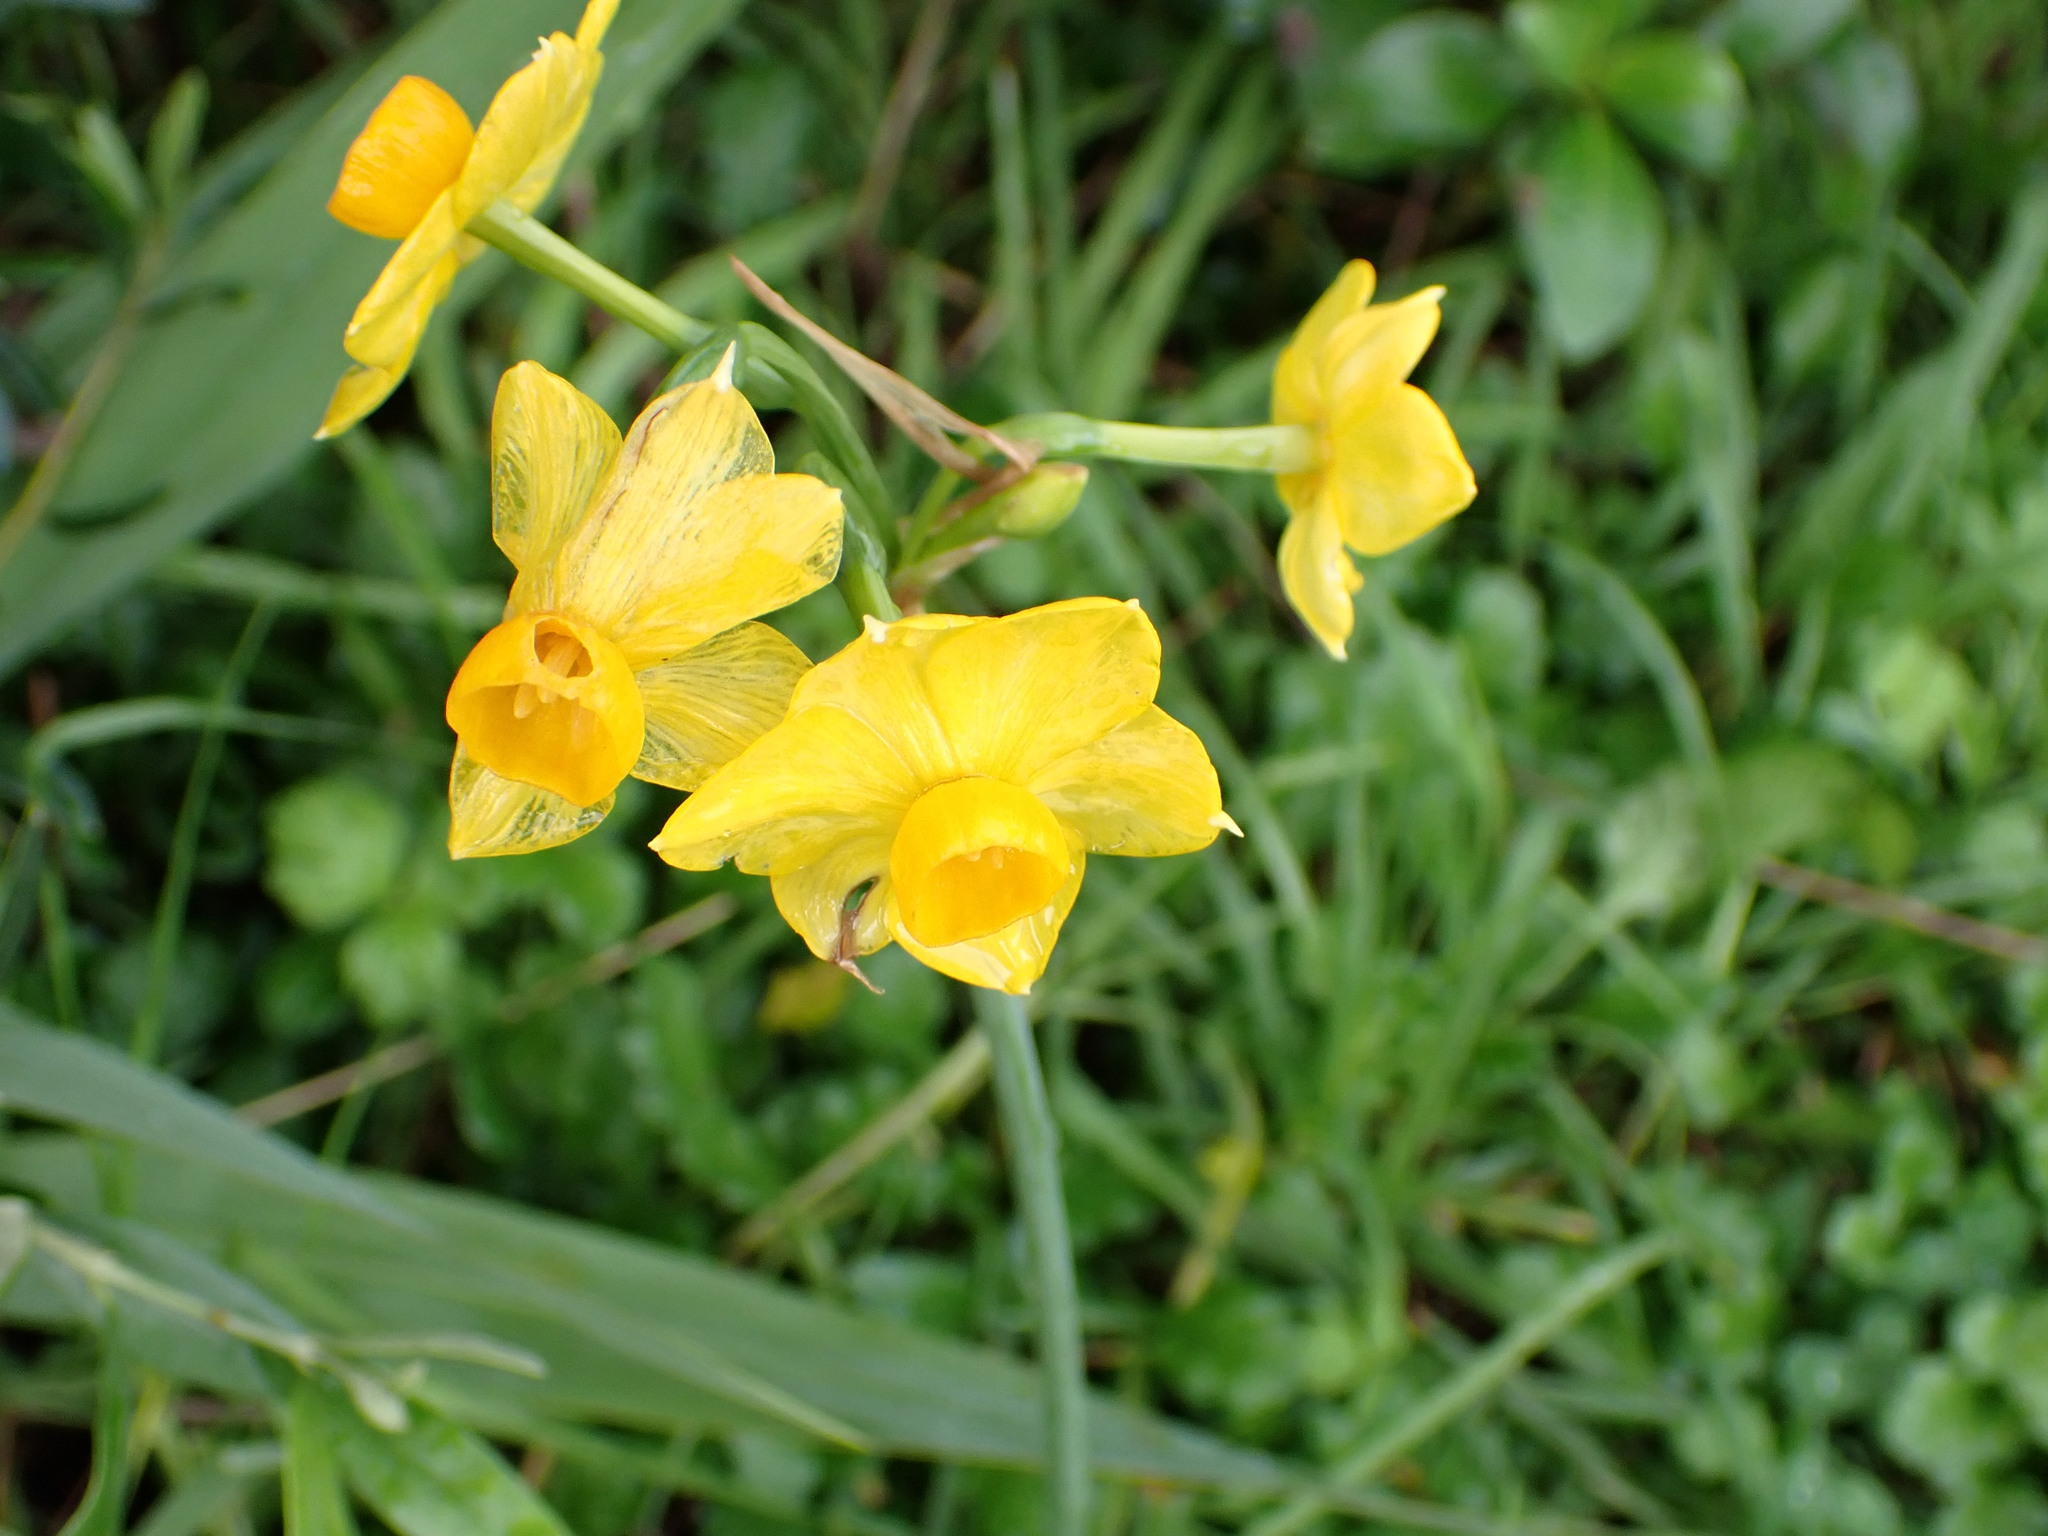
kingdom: Plantae
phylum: Tracheophyta
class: Liliopsida
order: Asparagales
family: Amaryllidaceae
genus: Narcissus
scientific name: Narcissus jonquilla
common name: Jonquil
